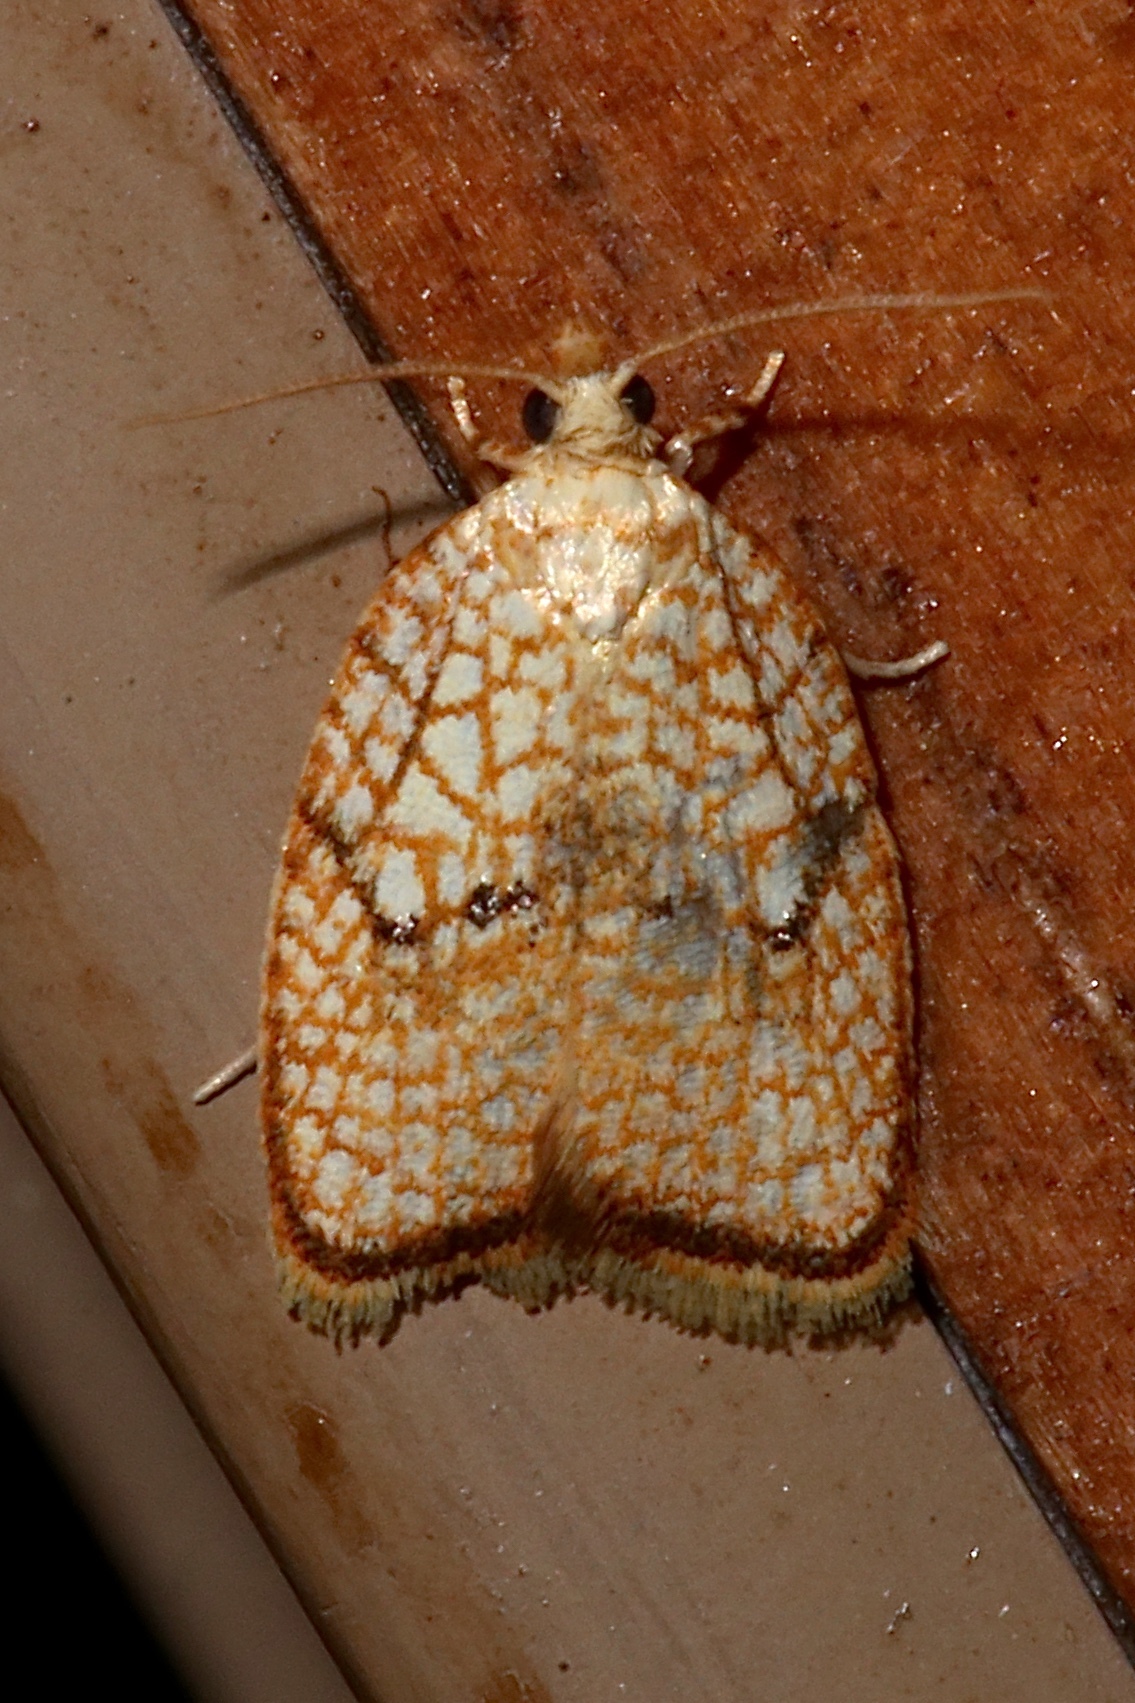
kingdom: Animalia
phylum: Arthropoda
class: Insecta
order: Lepidoptera
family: Tortricidae
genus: Acleris
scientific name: Acleris forsskaleana
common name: Maple button
